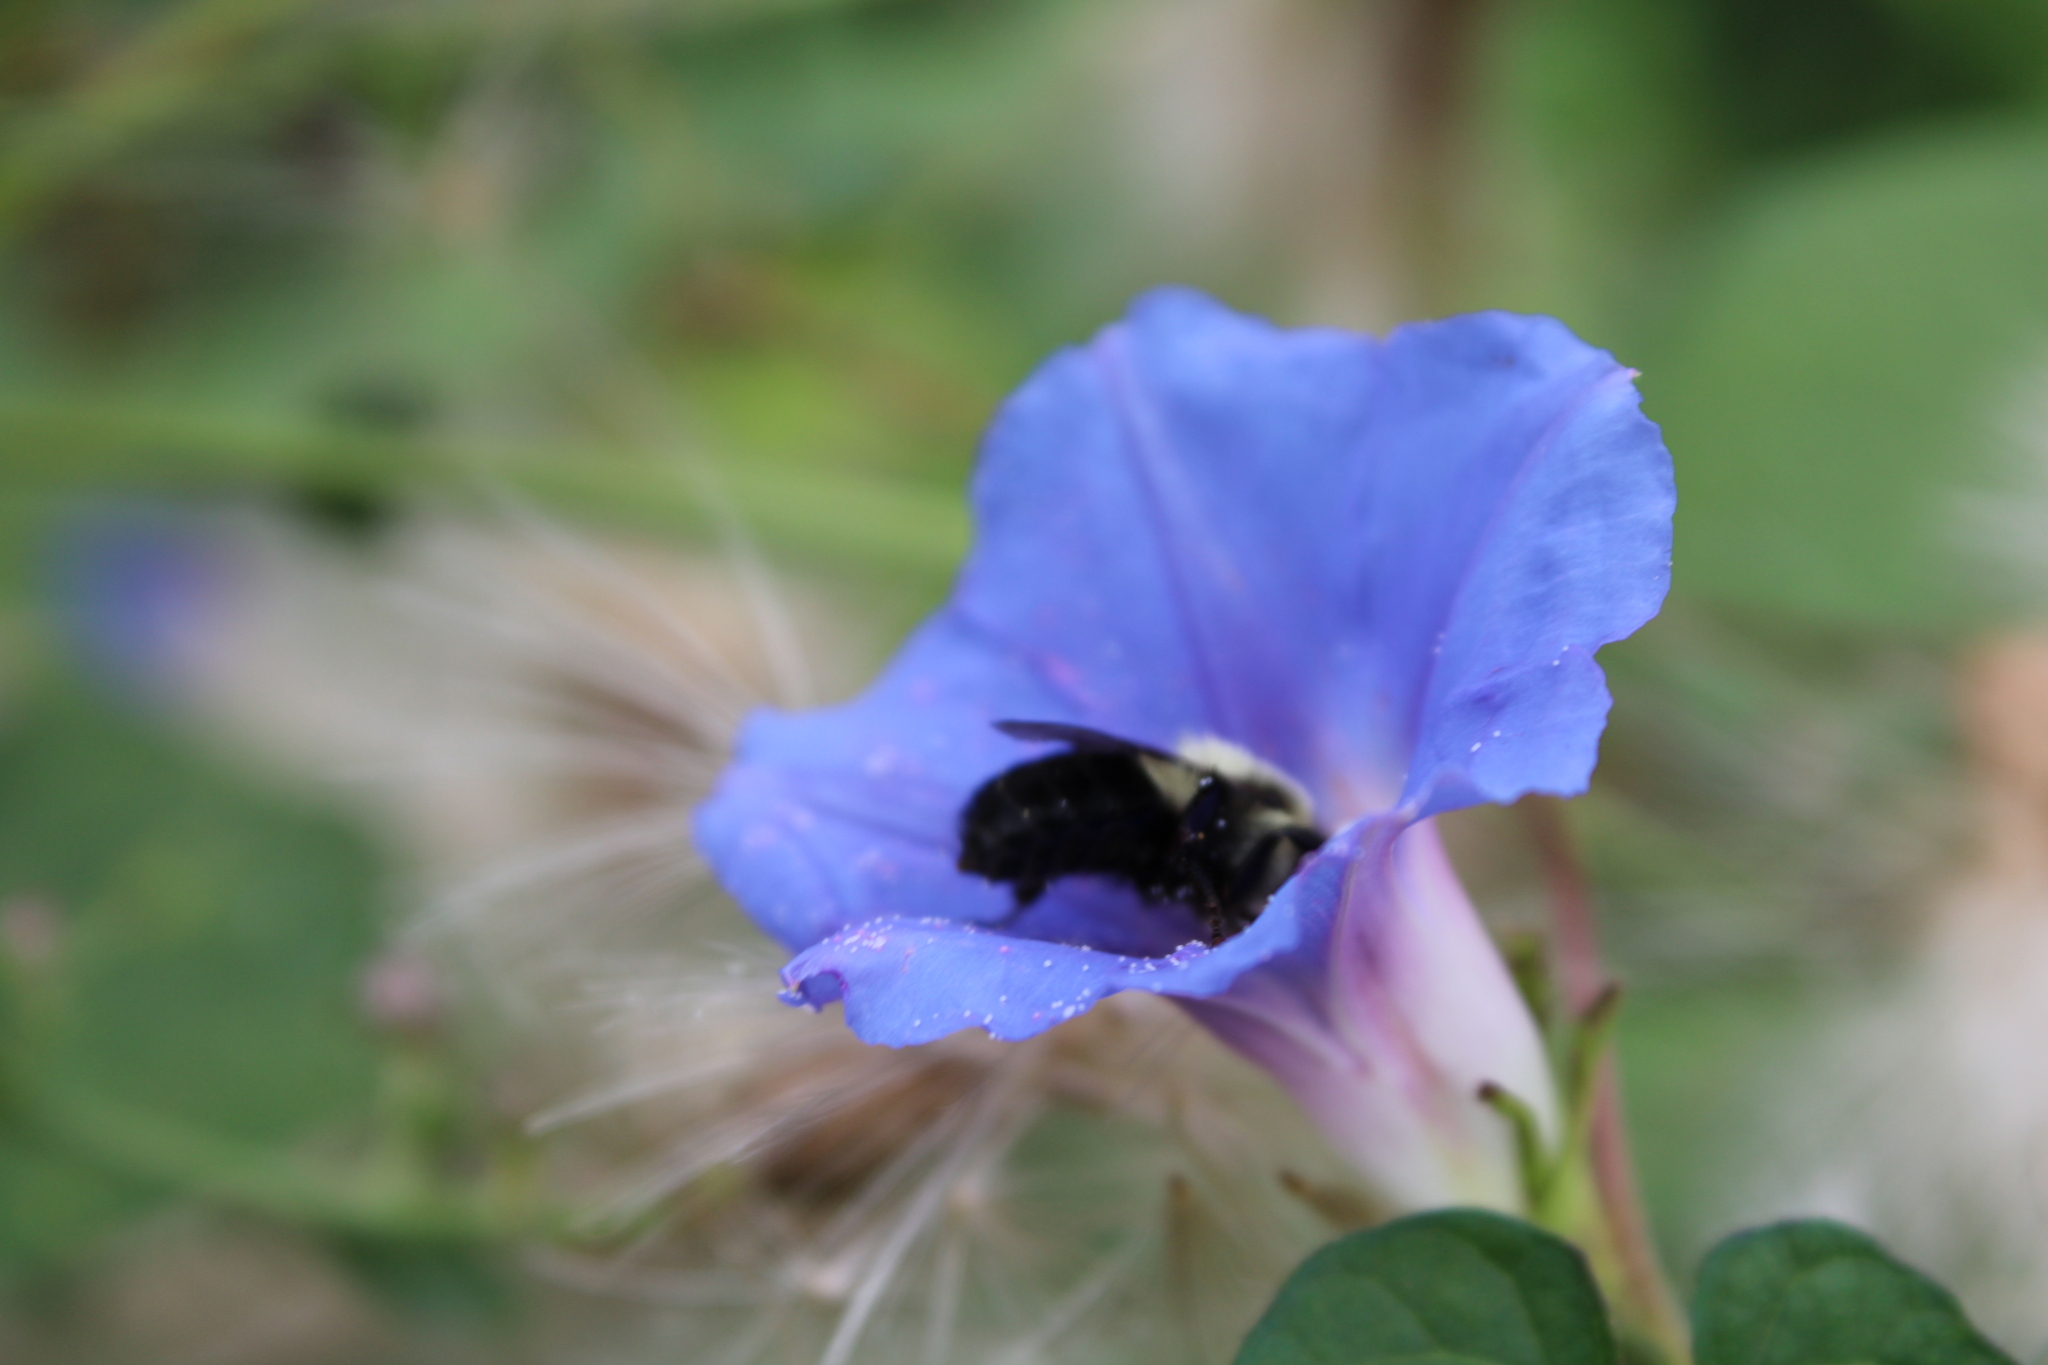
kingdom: Animalia
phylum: Arthropoda
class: Insecta
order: Hymenoptera
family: Apidae
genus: Bombus
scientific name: Bombus impatiens
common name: Common eastern bumble bee
